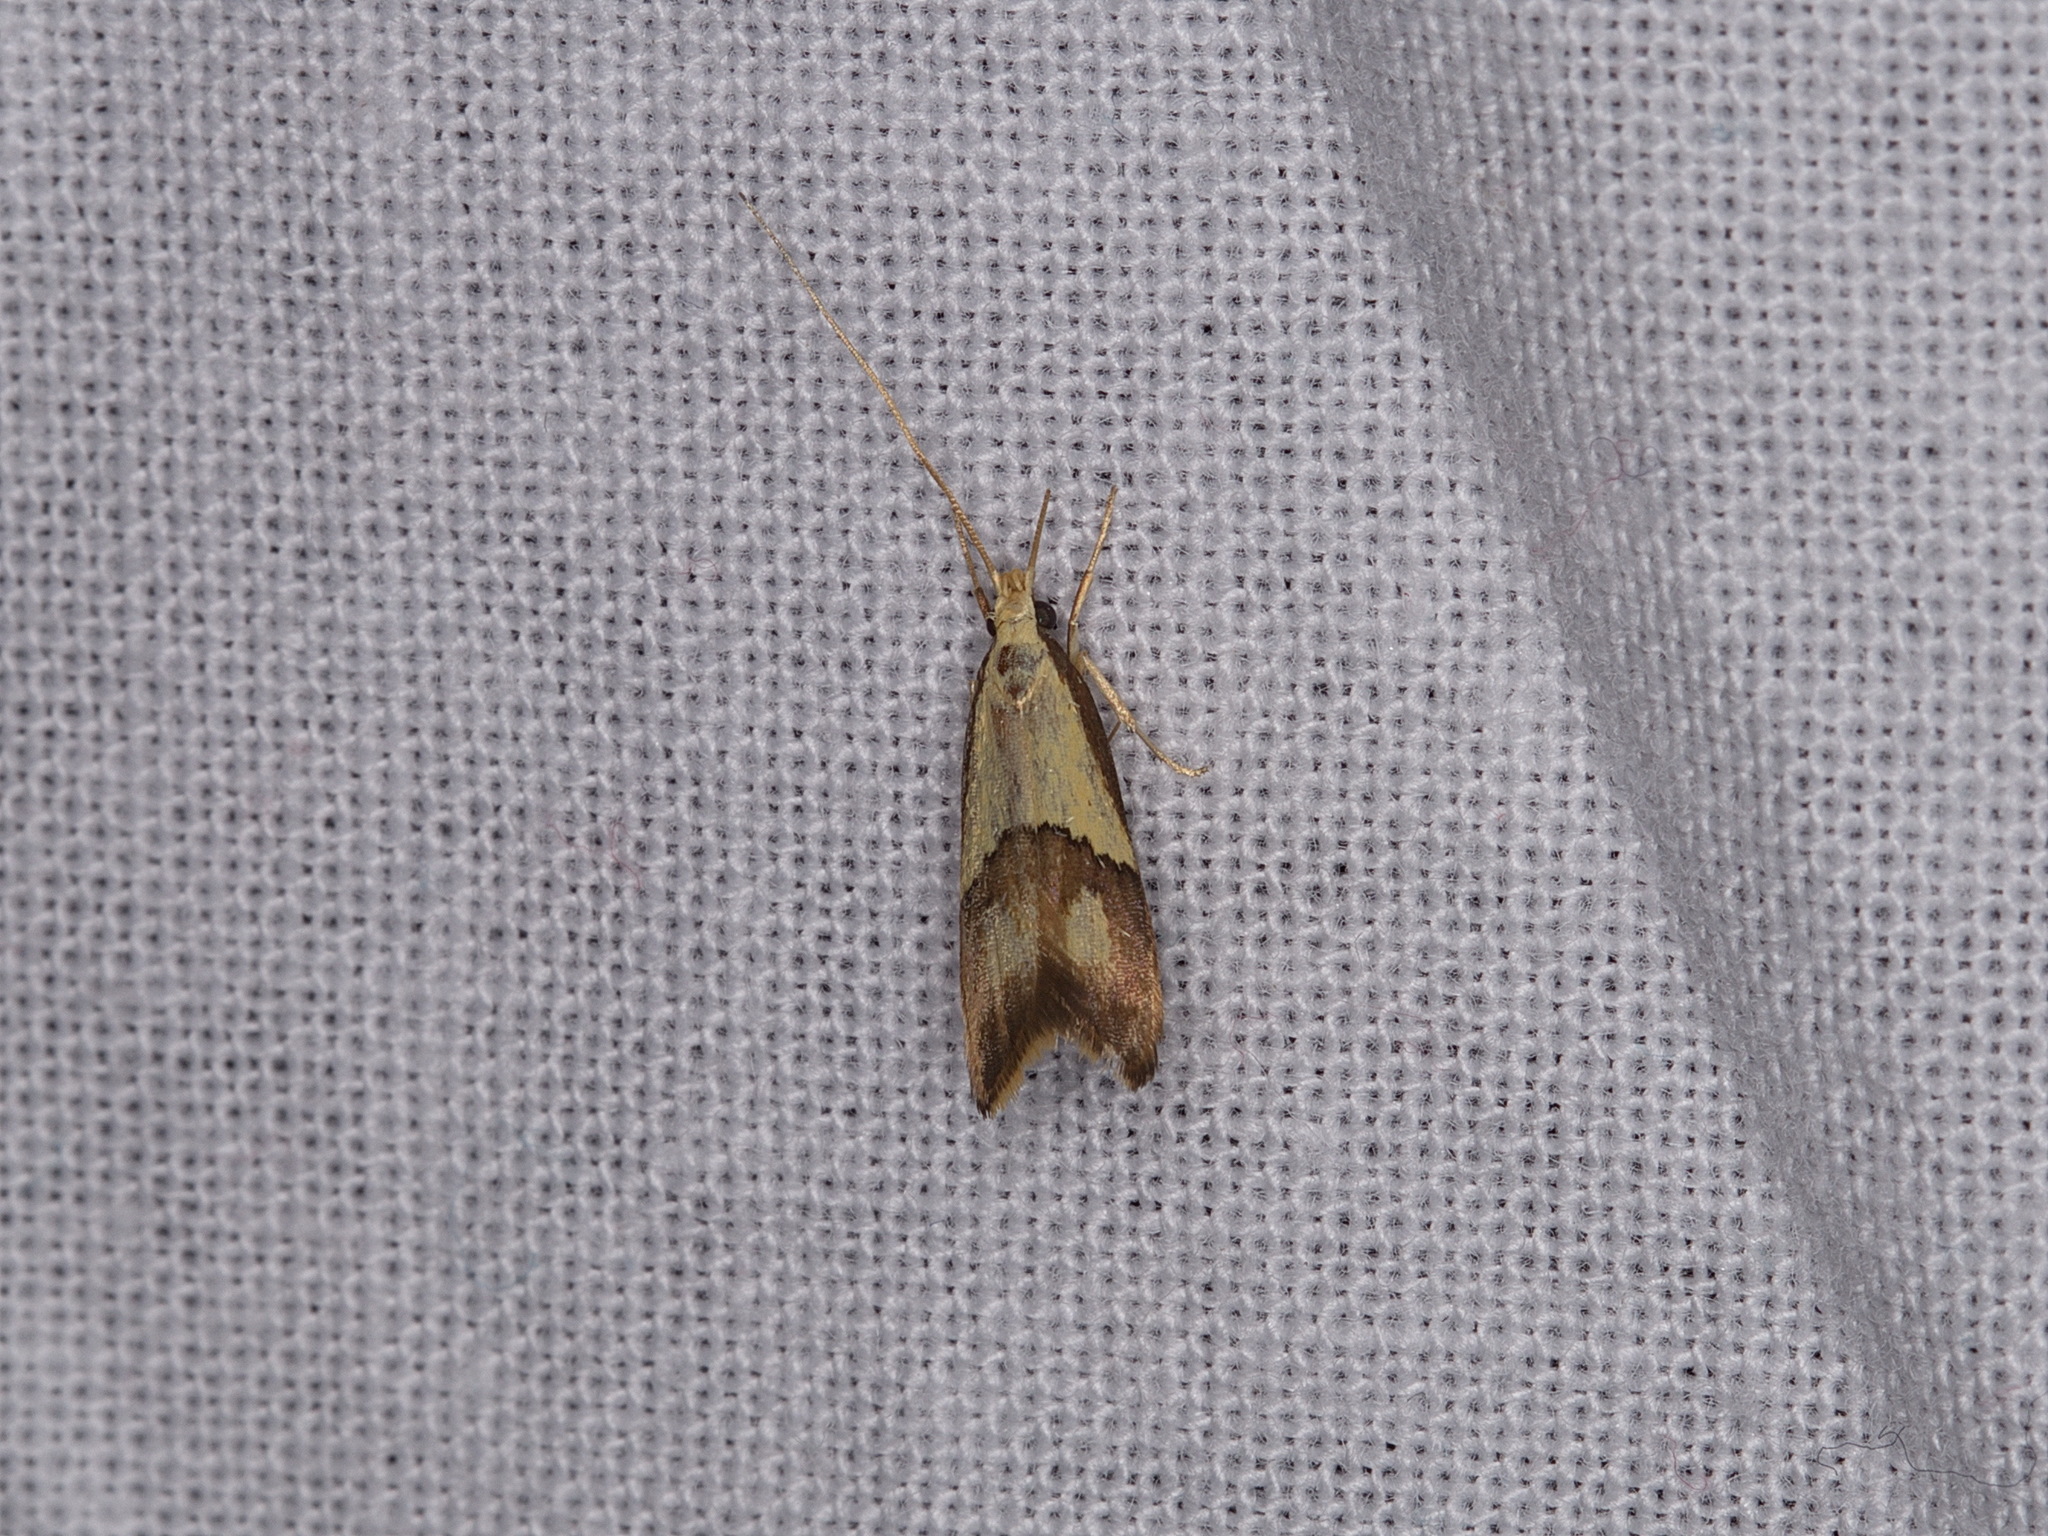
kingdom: Animalia
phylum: Arthropoda
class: Insecta
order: Lepidoptera
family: Lecithoceridae
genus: Crocanthes
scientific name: Crocanthes glycina
